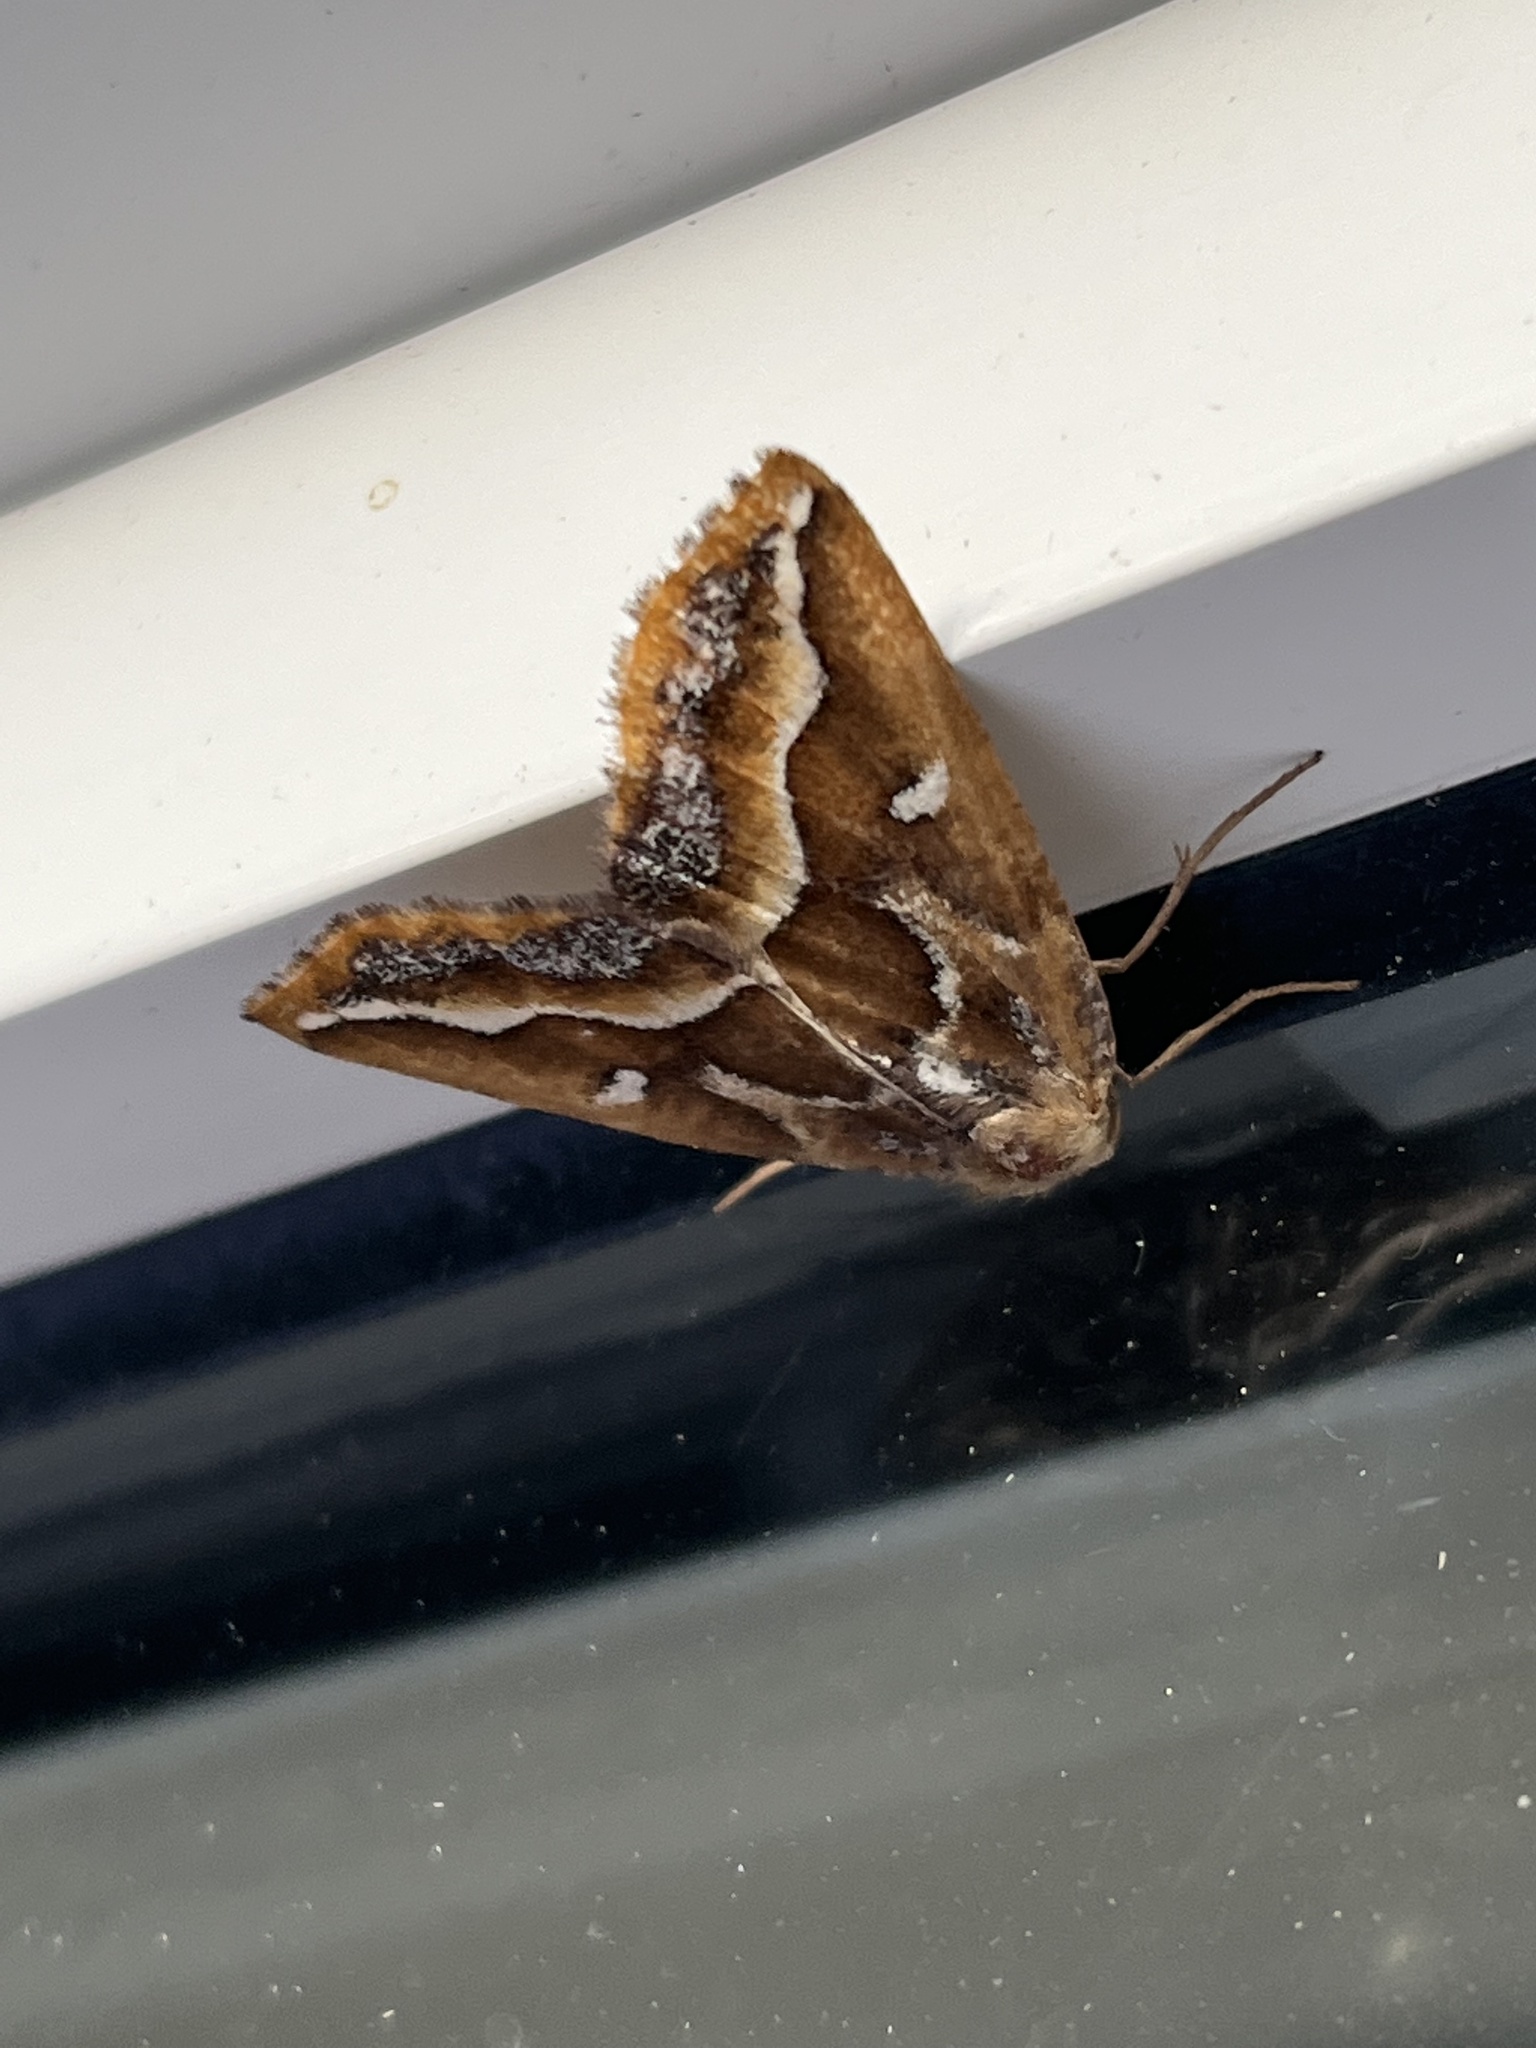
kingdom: Animalia
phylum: Arthropoda
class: Insecta
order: Lepidoptera
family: Geometridae
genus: Caripeta
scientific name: Caripeta angustiorata
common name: Brown pine looper
